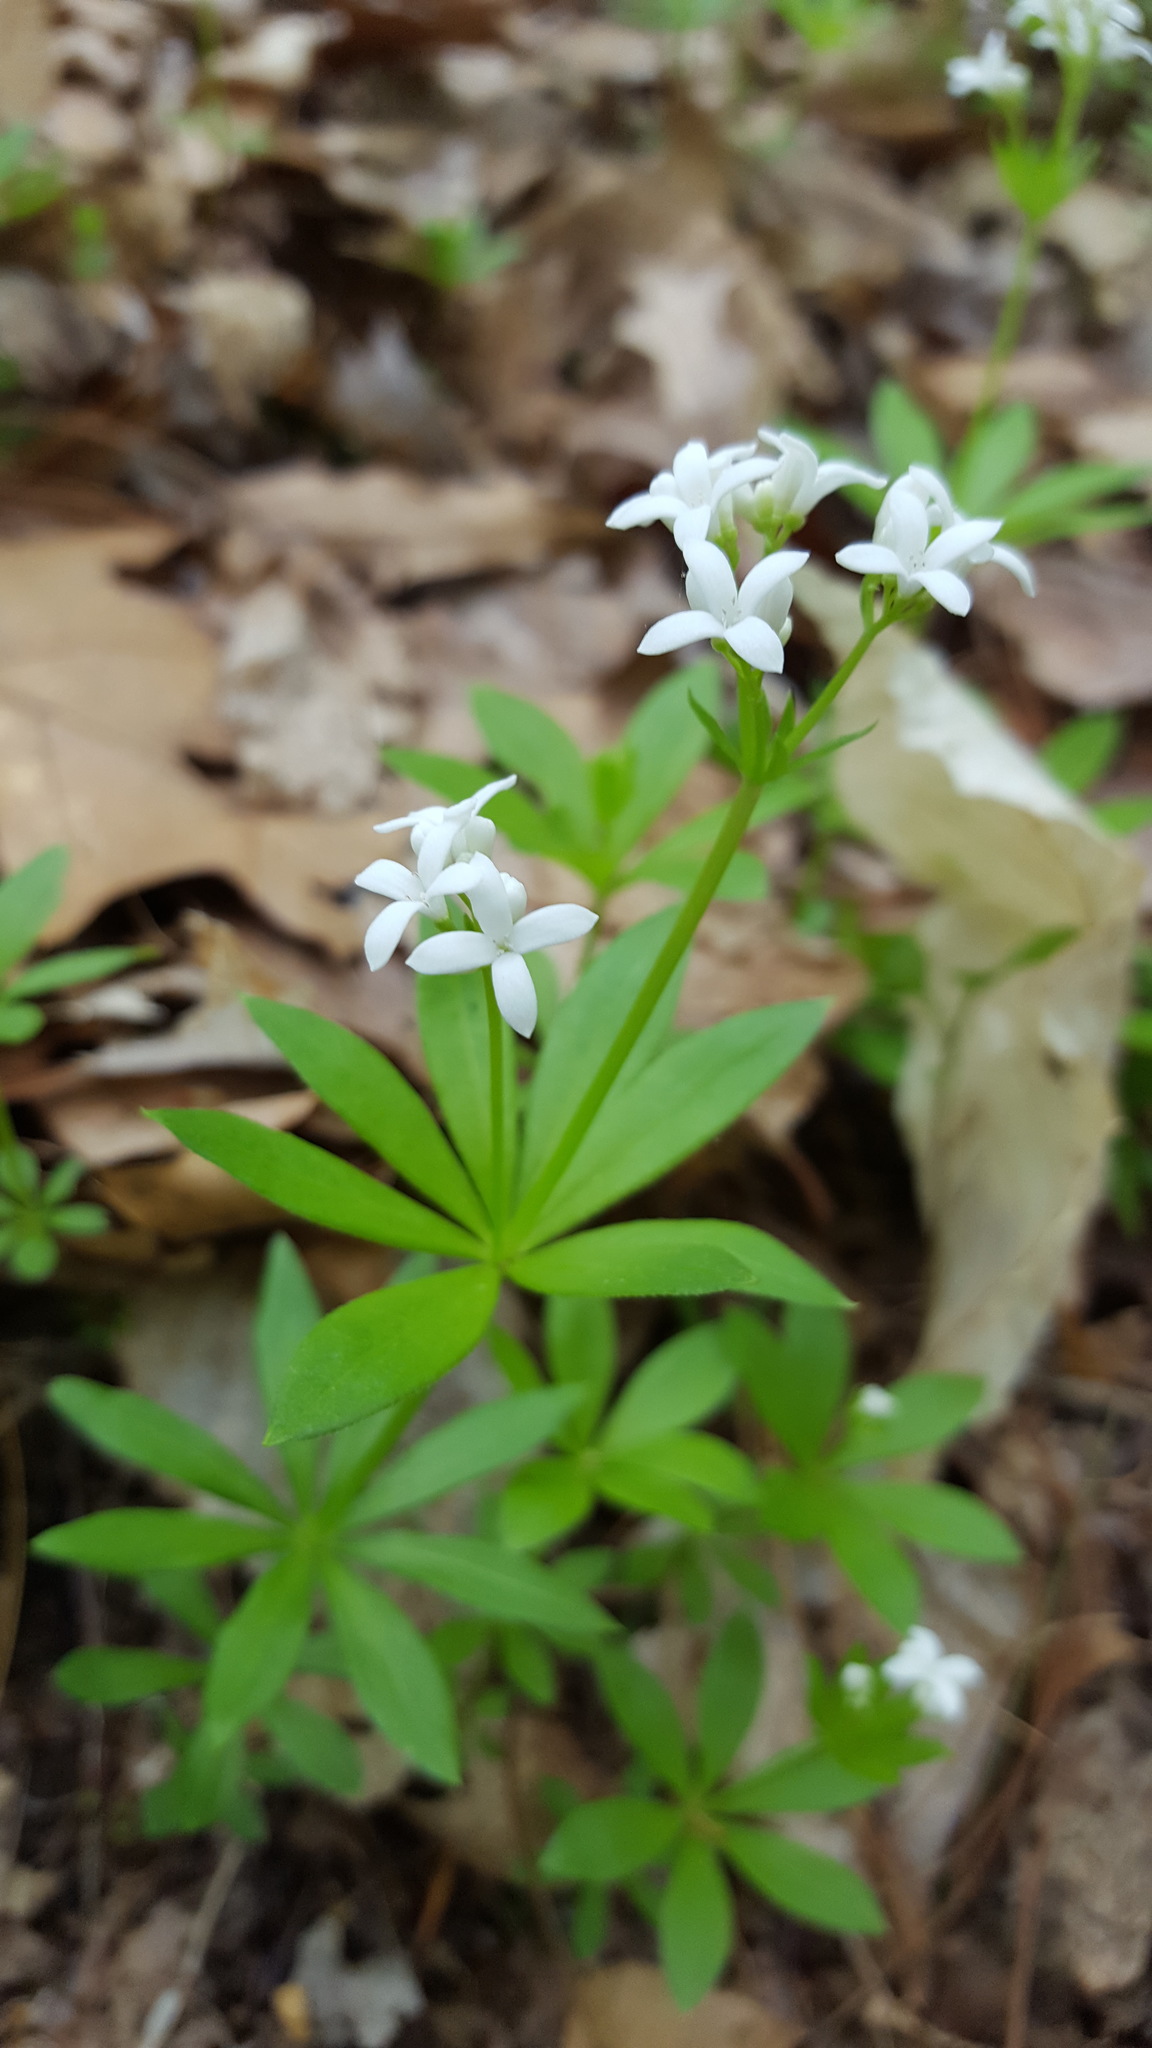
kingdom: Plantae
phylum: Tracheophyta
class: Magnoliopsida
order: Gentianales
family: Rubiaceae
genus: Galium
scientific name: Galium odoratum
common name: Sweet woodruff
